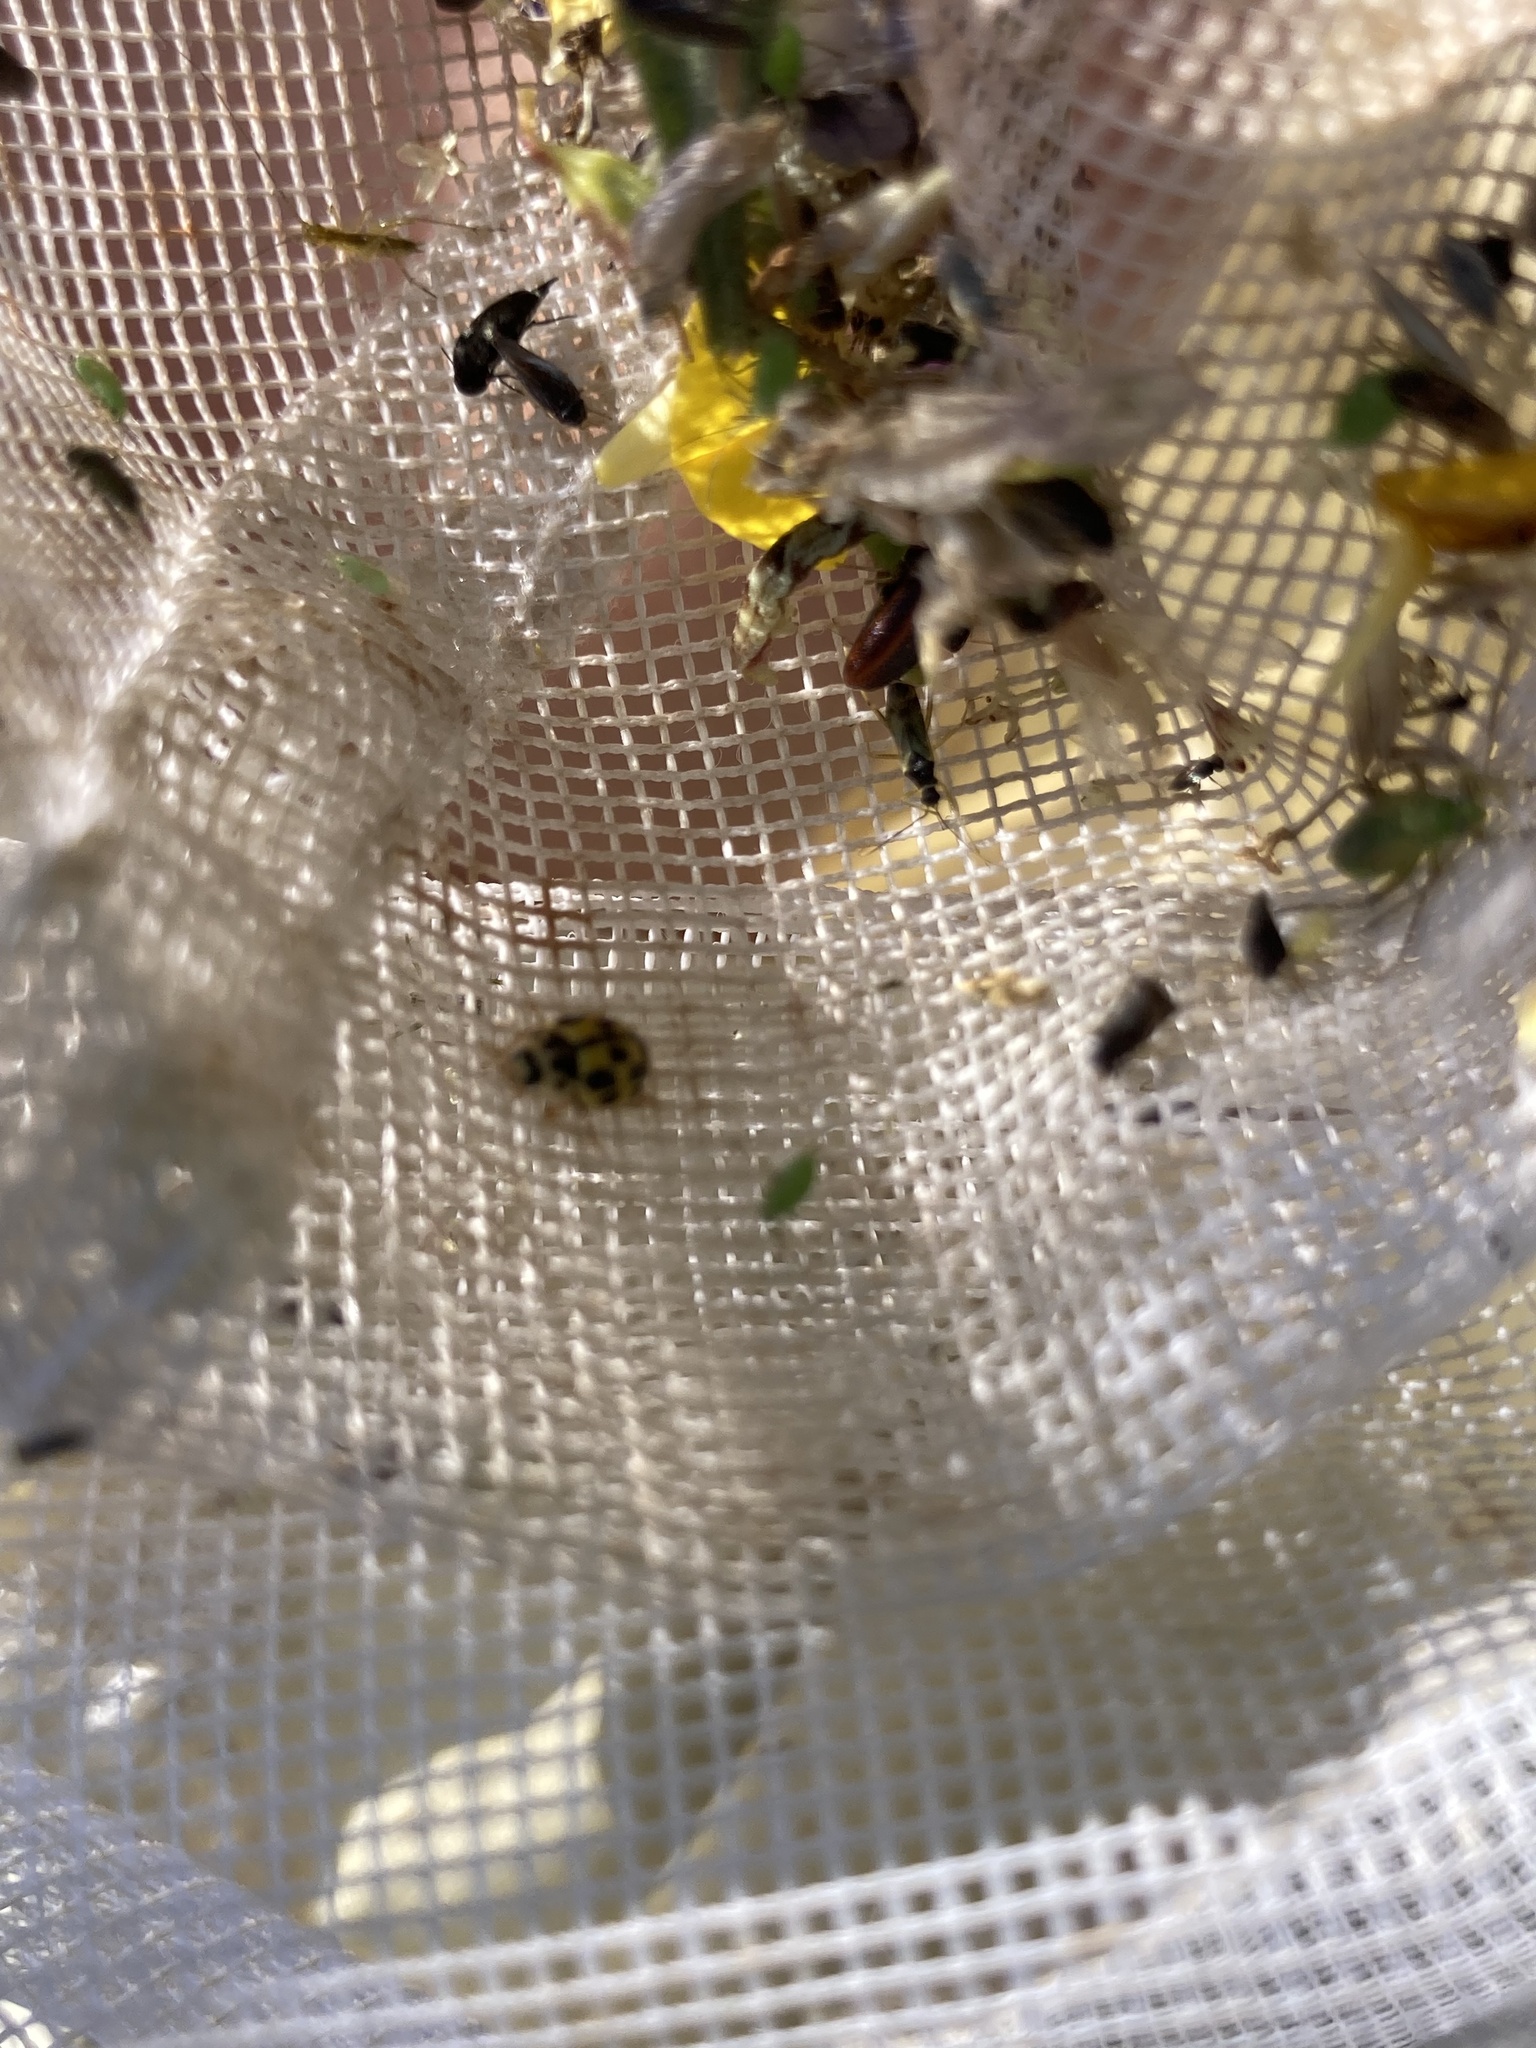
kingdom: Animalia
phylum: Arthropoda
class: Insecta
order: Coleoptera
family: Coccinellidae
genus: Propylaea
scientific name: Propylaea quatuordecimpunctata
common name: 14-spotted ladybird beetle
